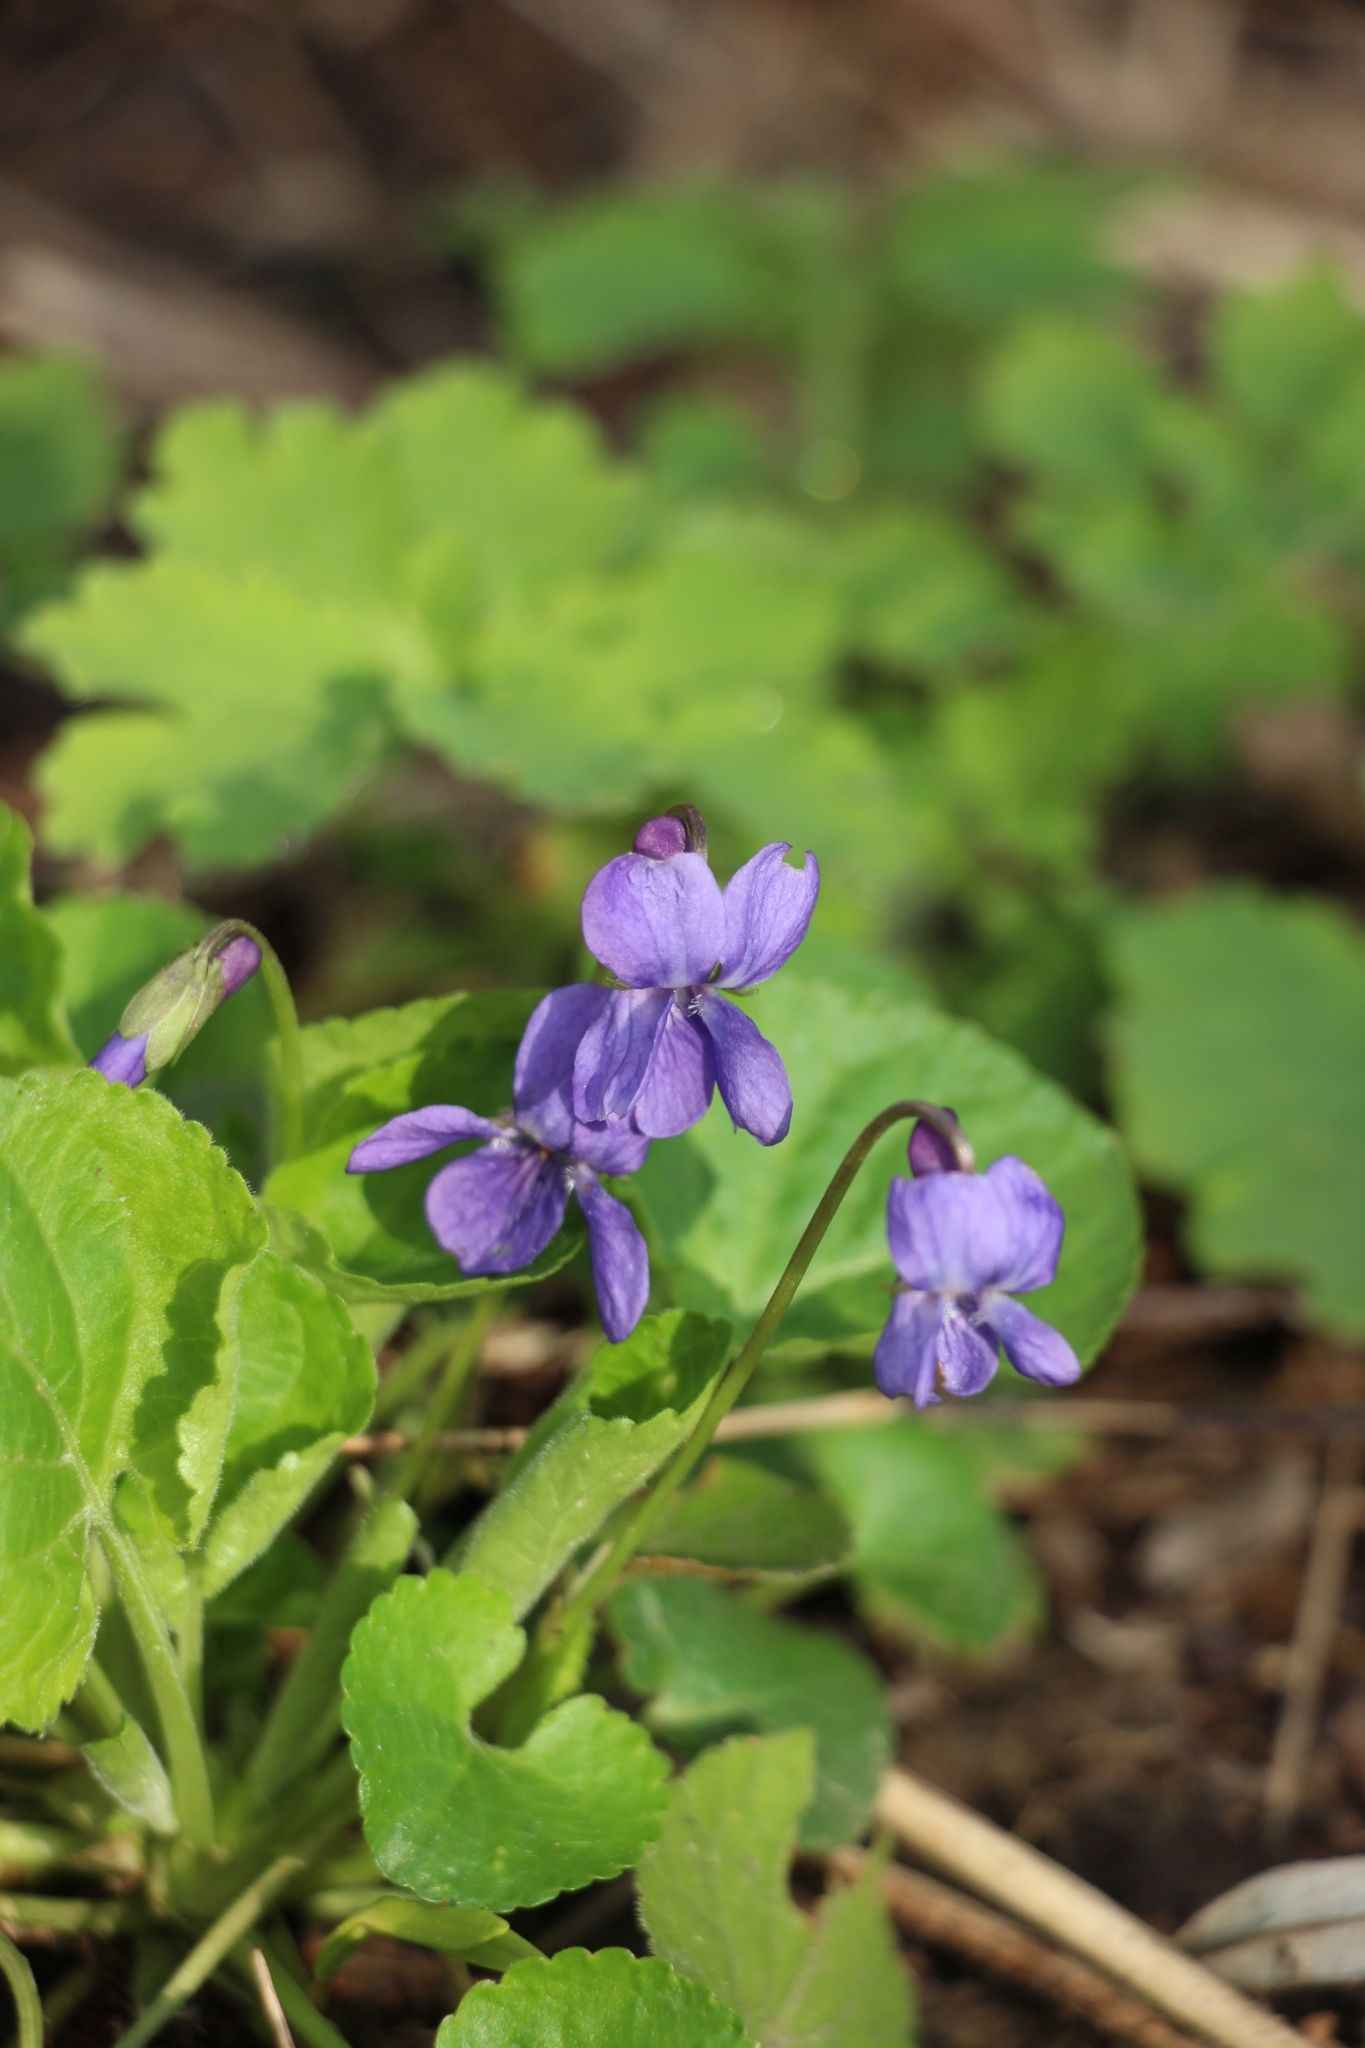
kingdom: Plantae
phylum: Tracheophyta
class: Magnoliopsida
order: Malpighiales
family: Violaceae
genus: Viola
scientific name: Viola odorata
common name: Sweet violet
